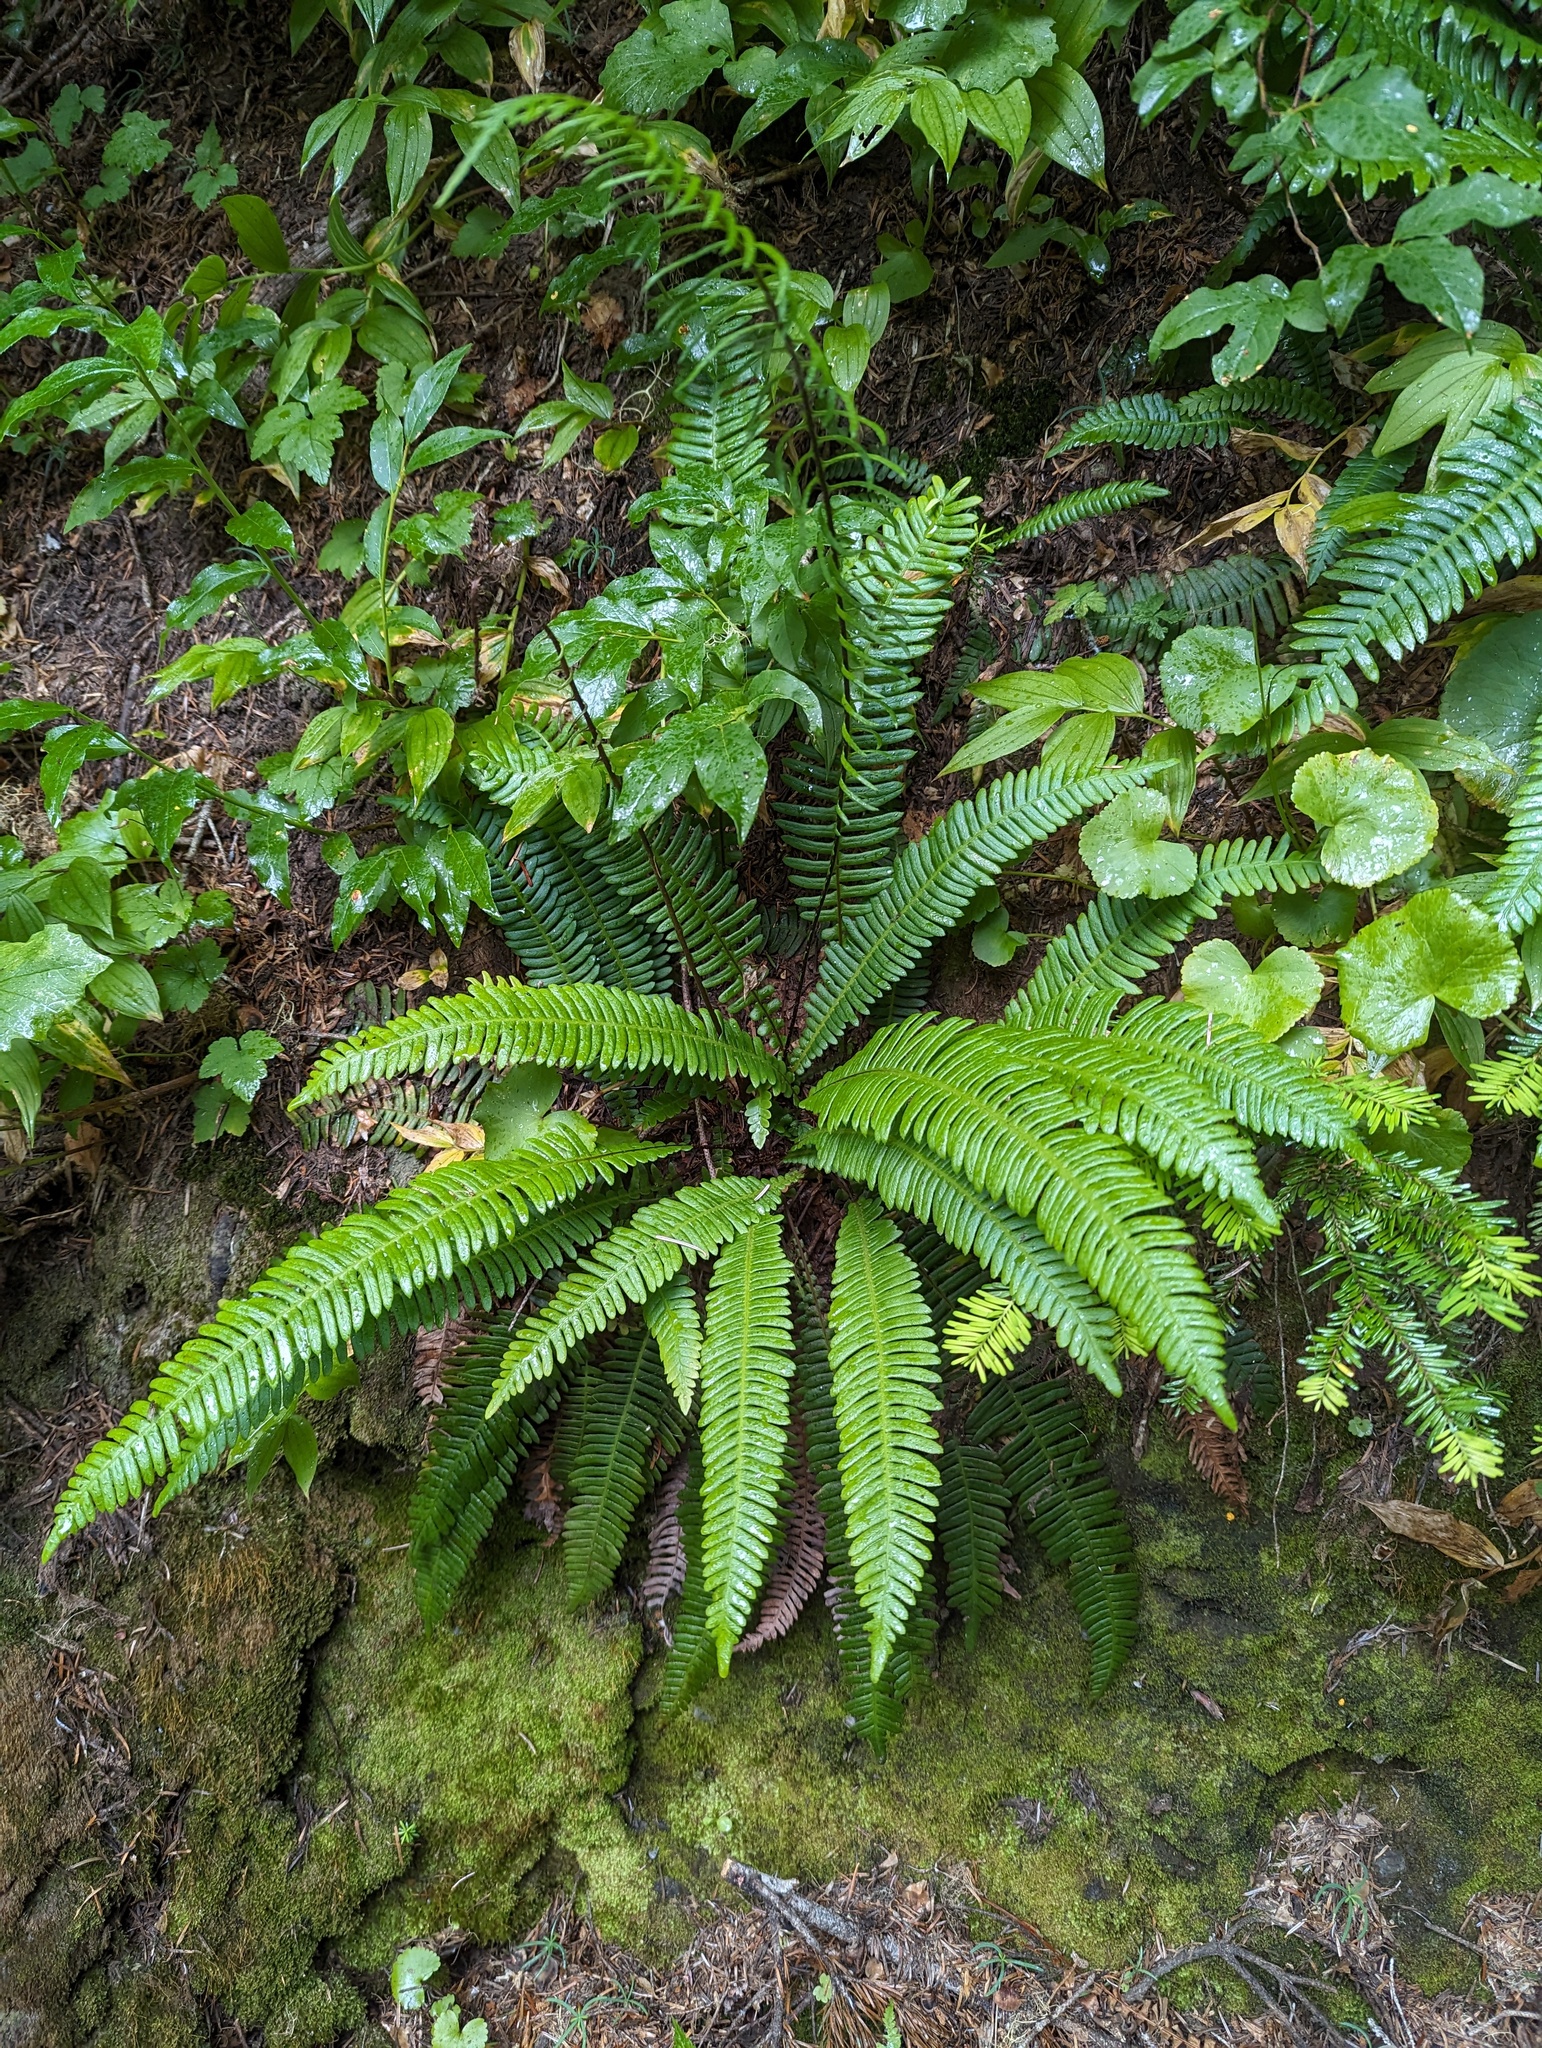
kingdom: Plantae
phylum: Tracheophyta
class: Polypodiopsida
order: Polypodiales
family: Blechnaceae
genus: Struthiopteris
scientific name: Struthiopteris spicant
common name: Deer fern
